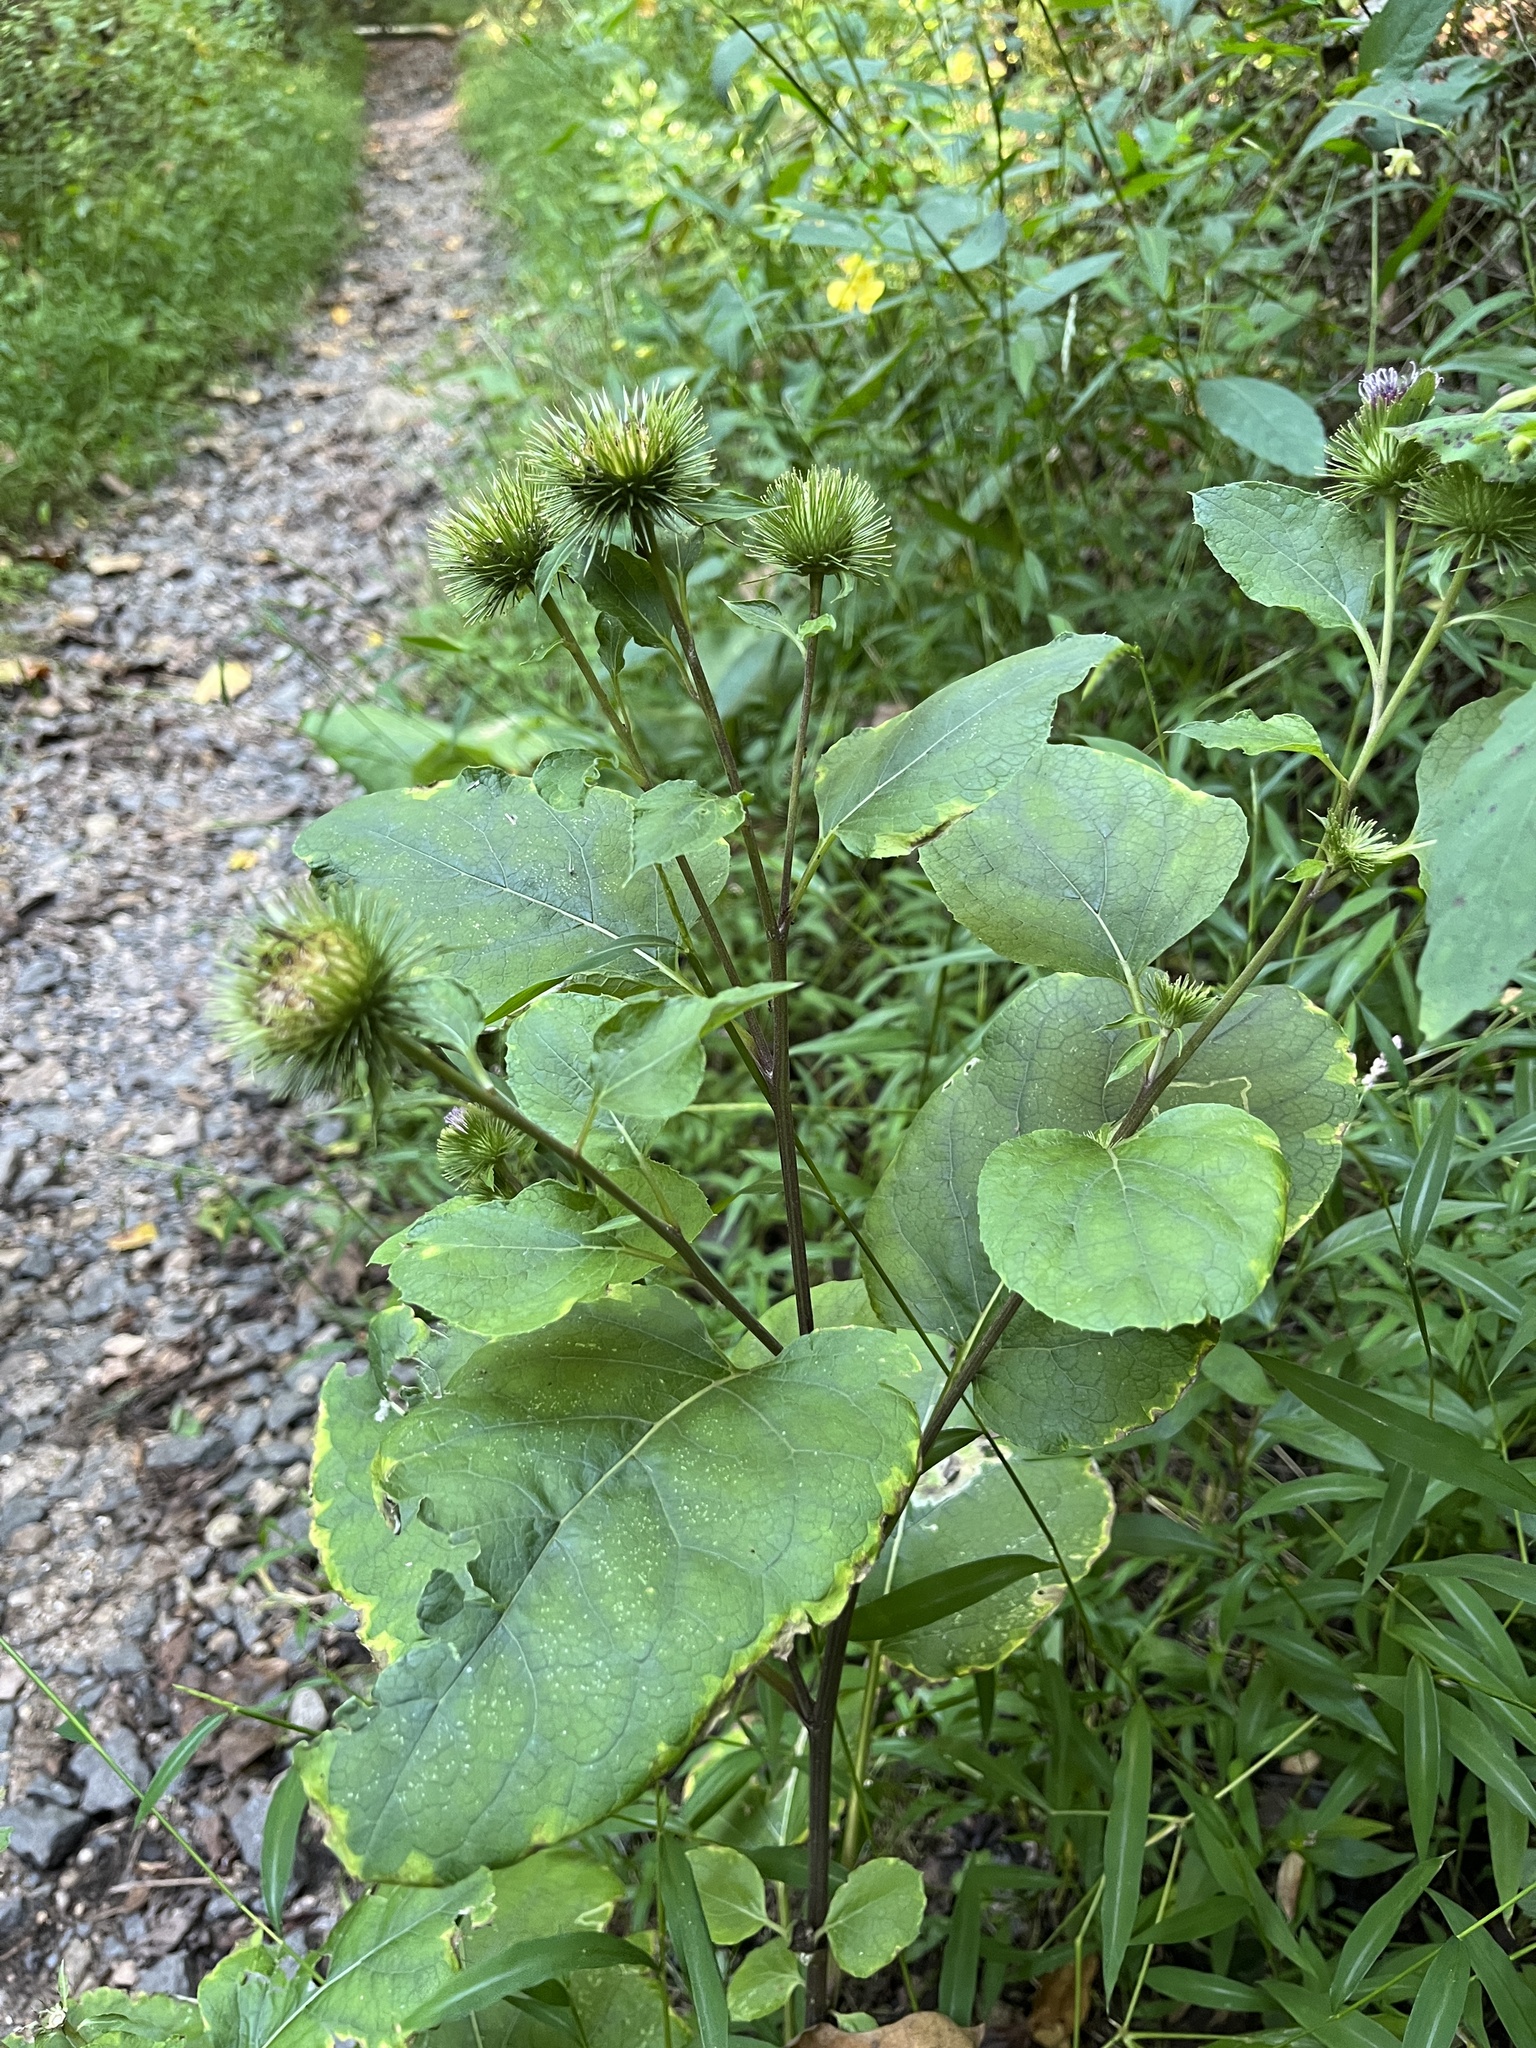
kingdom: Plantae
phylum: Tracheophyta
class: Magnoliopsida
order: Asterales
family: Asteraceae
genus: Arctium
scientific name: Arctium lappa
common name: Greater burdock
